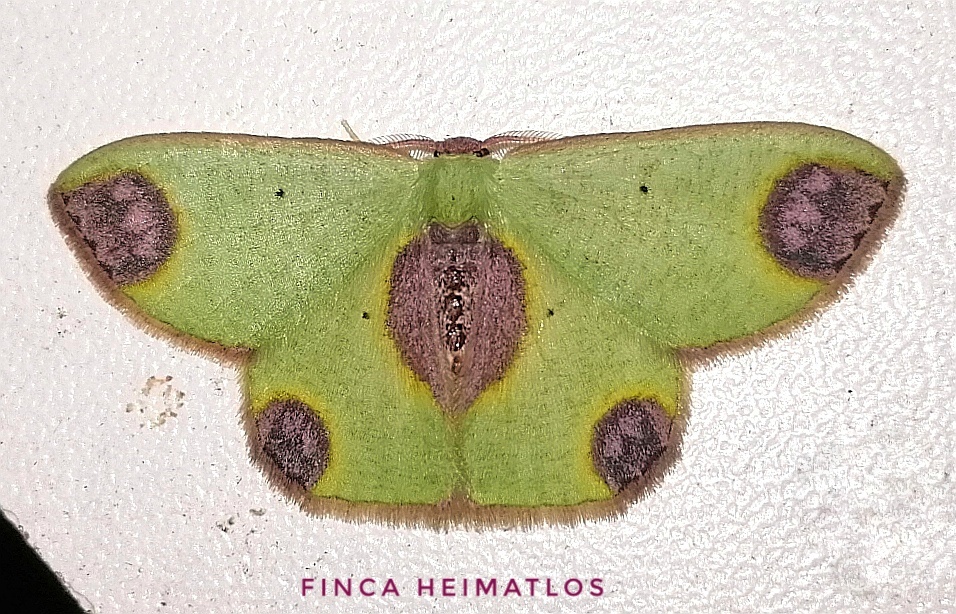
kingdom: Animalia
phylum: Arthropoda
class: Insecta
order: Lepidoptera
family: Geometridae
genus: Oospila
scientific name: Oospila rosipara
